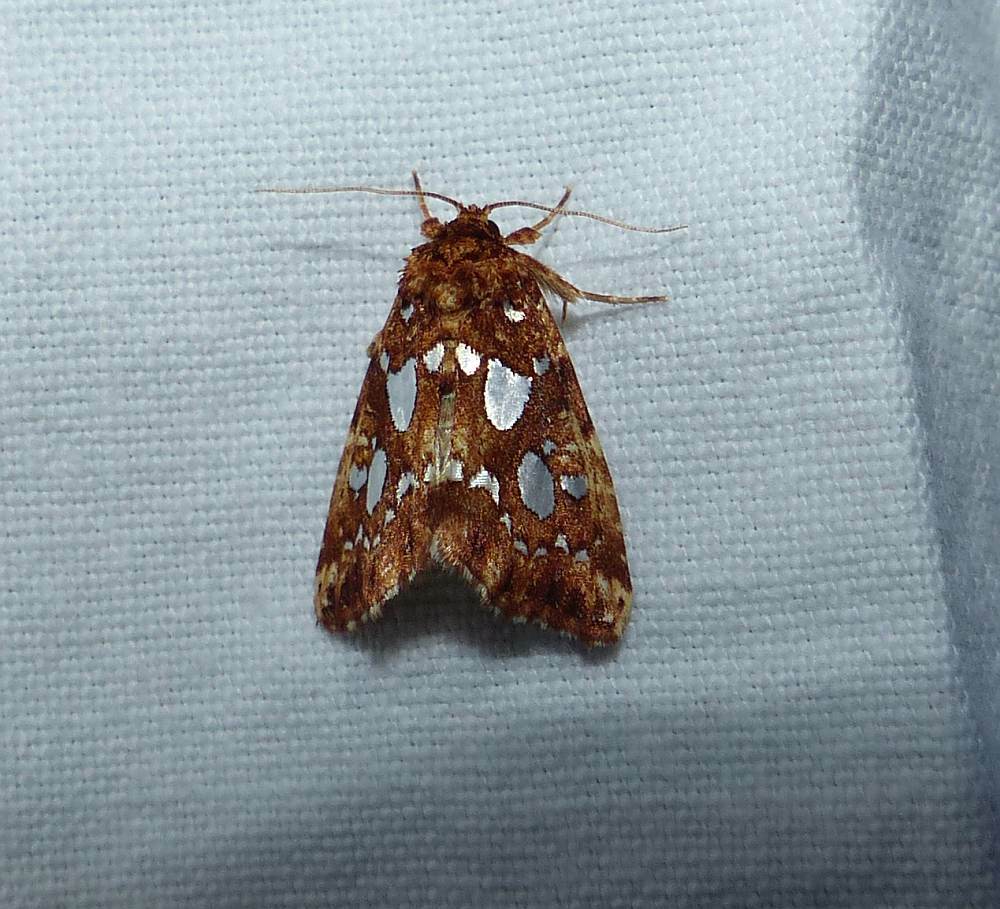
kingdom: Animalia
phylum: Arthropoda
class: Insecta
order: Lepidoptera
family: Noctuidae
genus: Callopistria
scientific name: Callopistria cordata
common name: Silver-spotted fern moth
